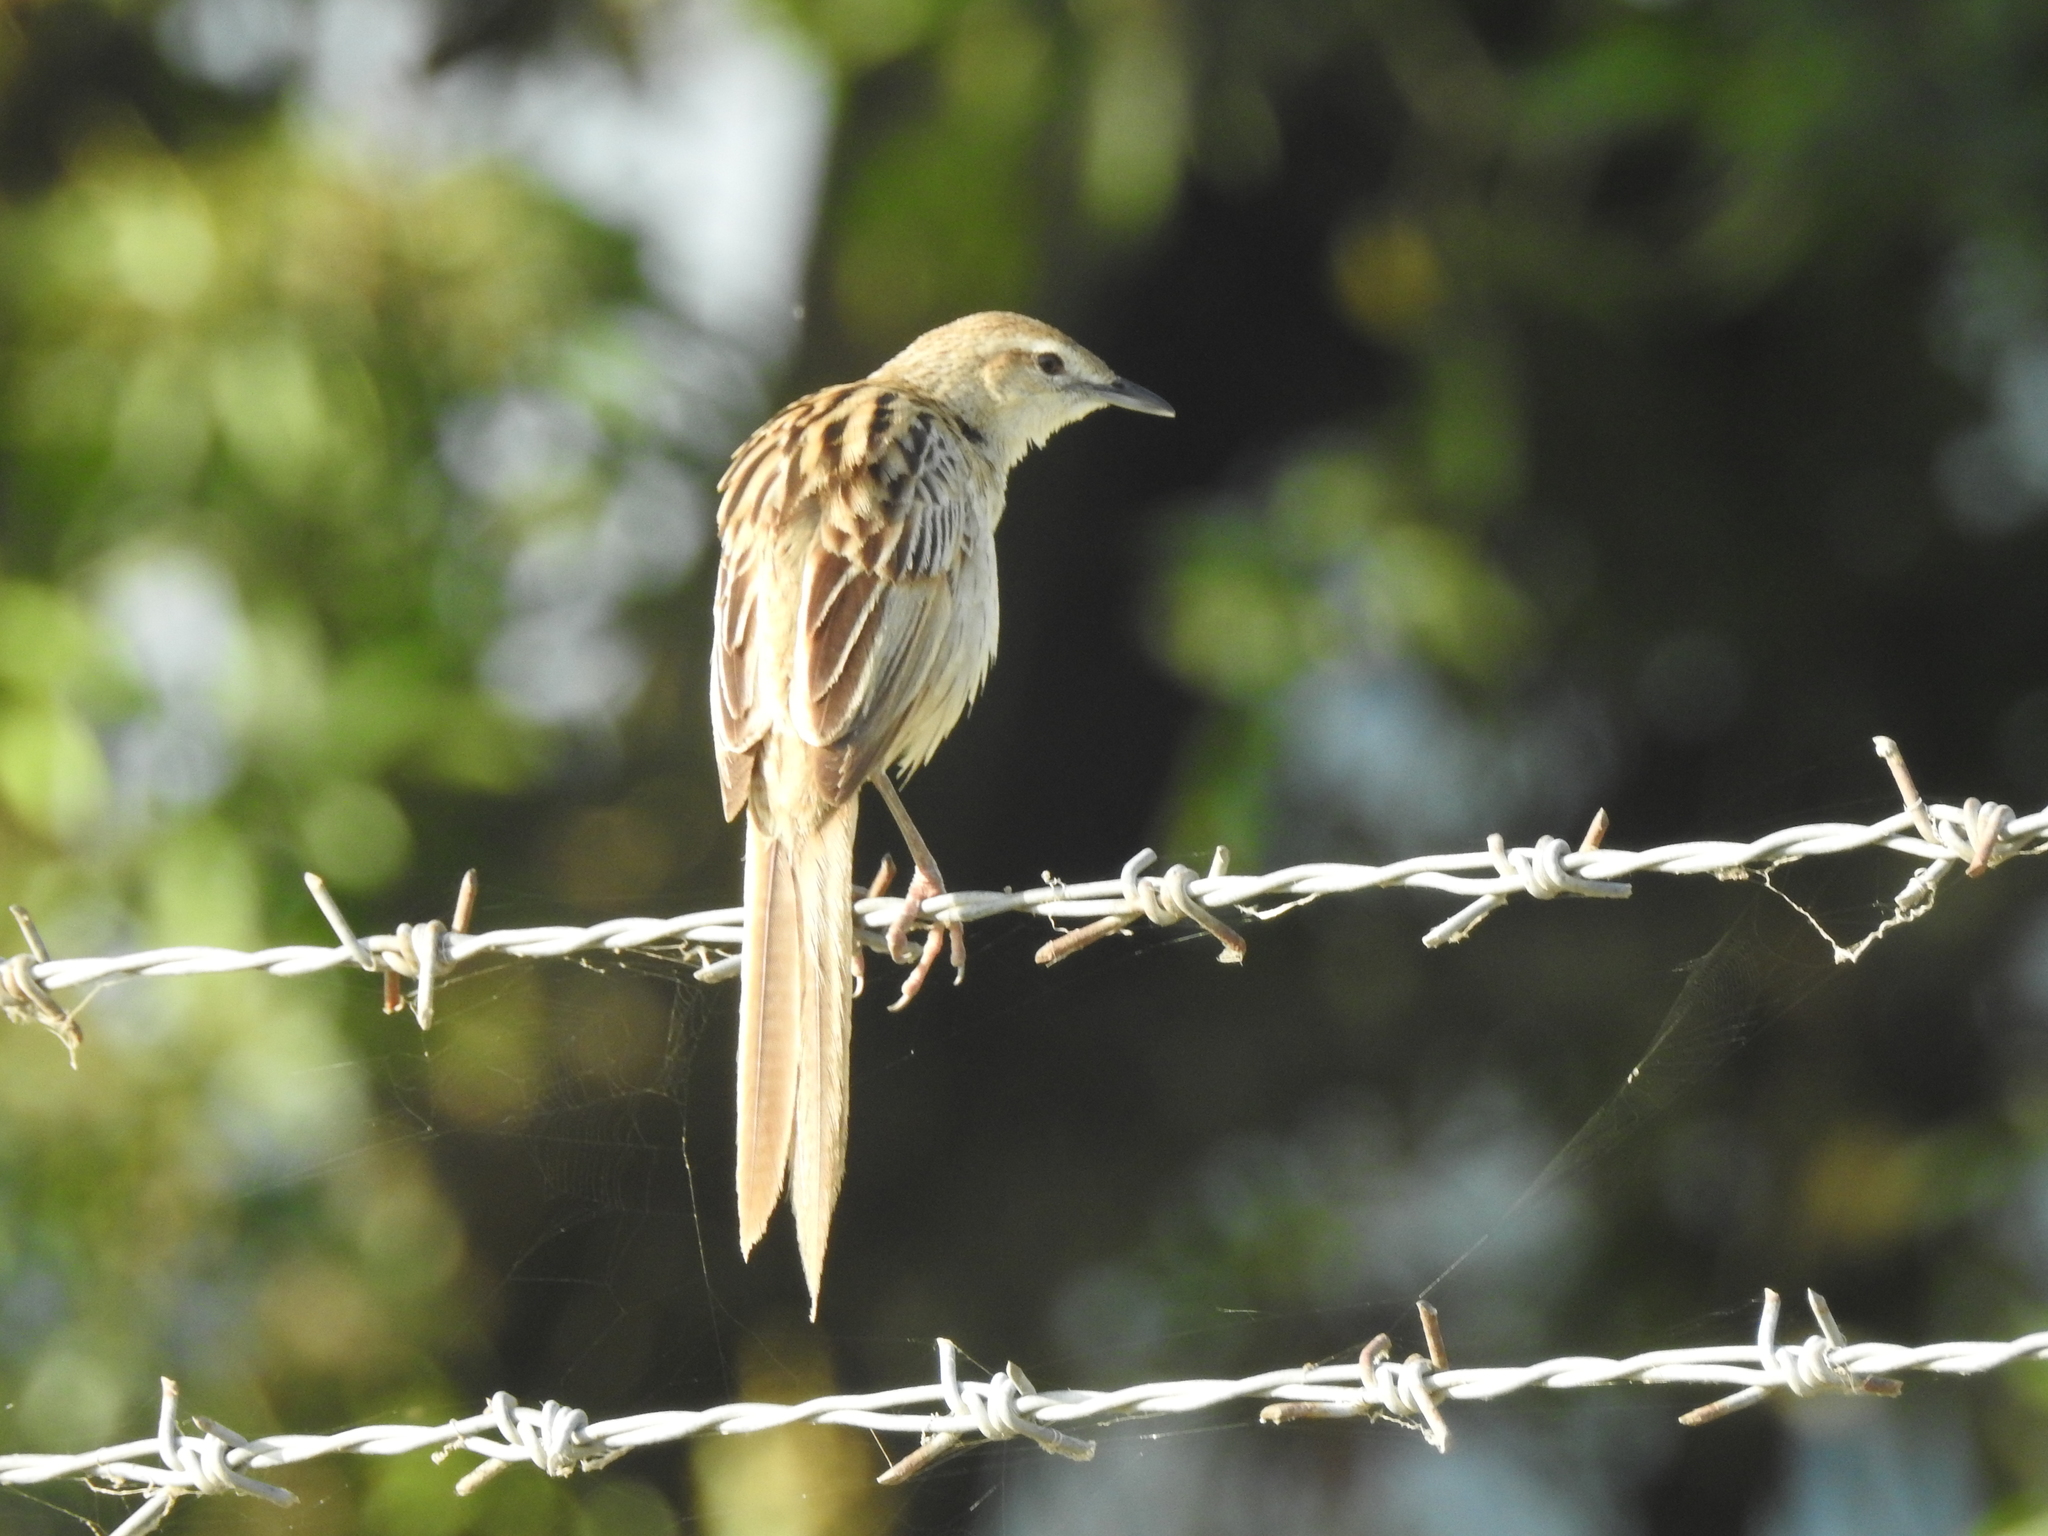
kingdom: Animalia
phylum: Chordata
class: Aves
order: Passeriformes
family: Locustellidae
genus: Megalurus
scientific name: Megalurus palustris
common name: Striated grassbird
